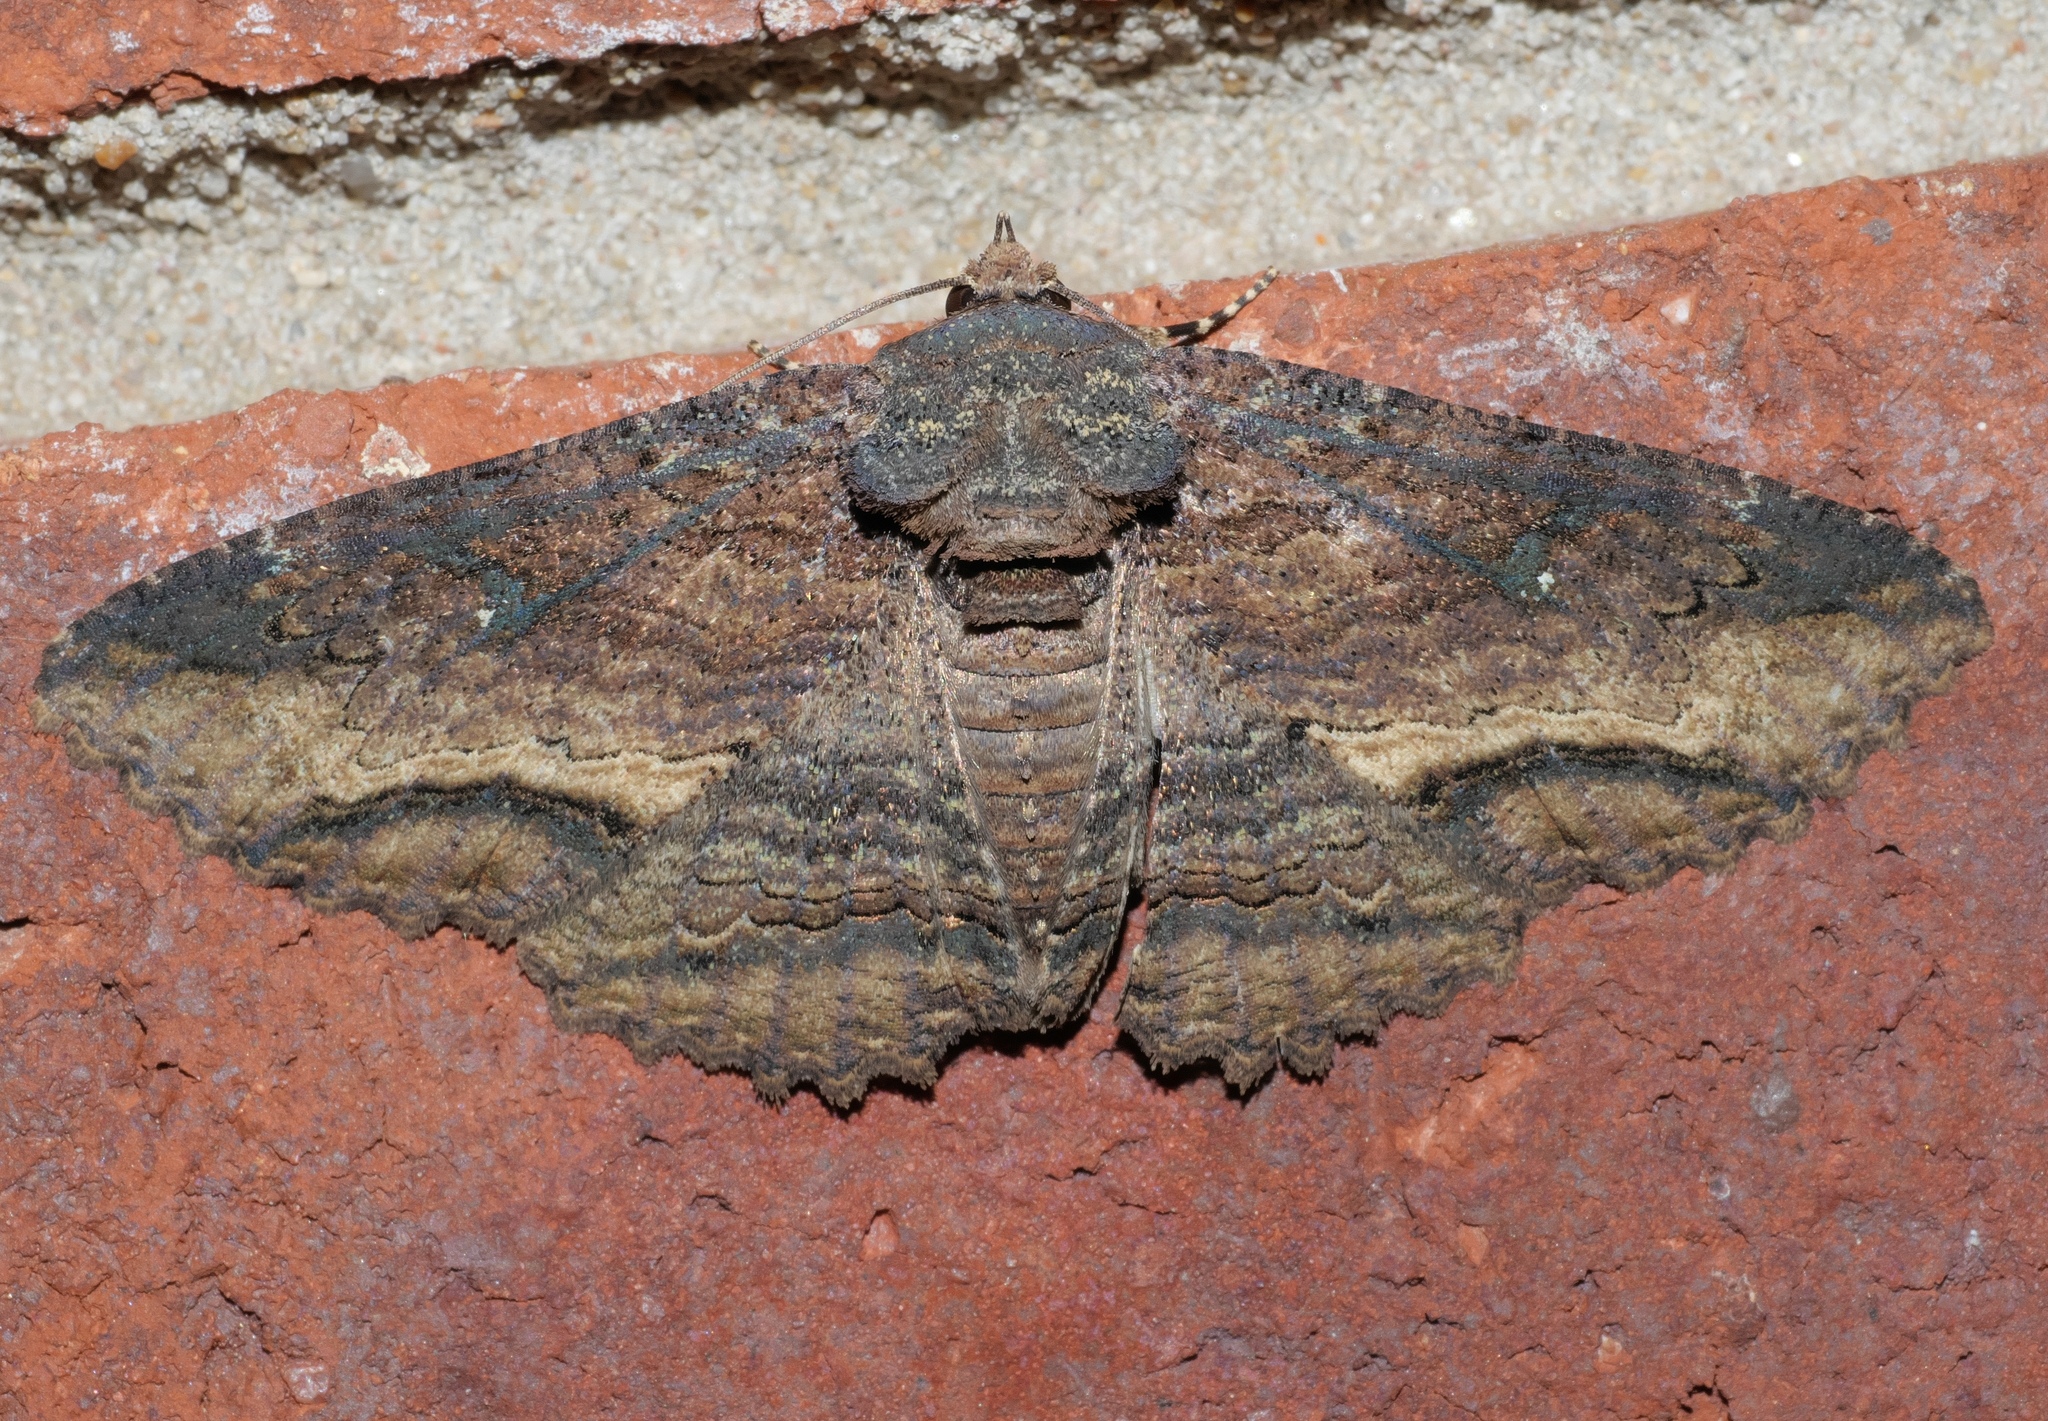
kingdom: Animalia
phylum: Arthropoda
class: Insecta
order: Lepidoptera
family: Erebidae
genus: Zale
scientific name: Zale lunata
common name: Lunate zale moth
